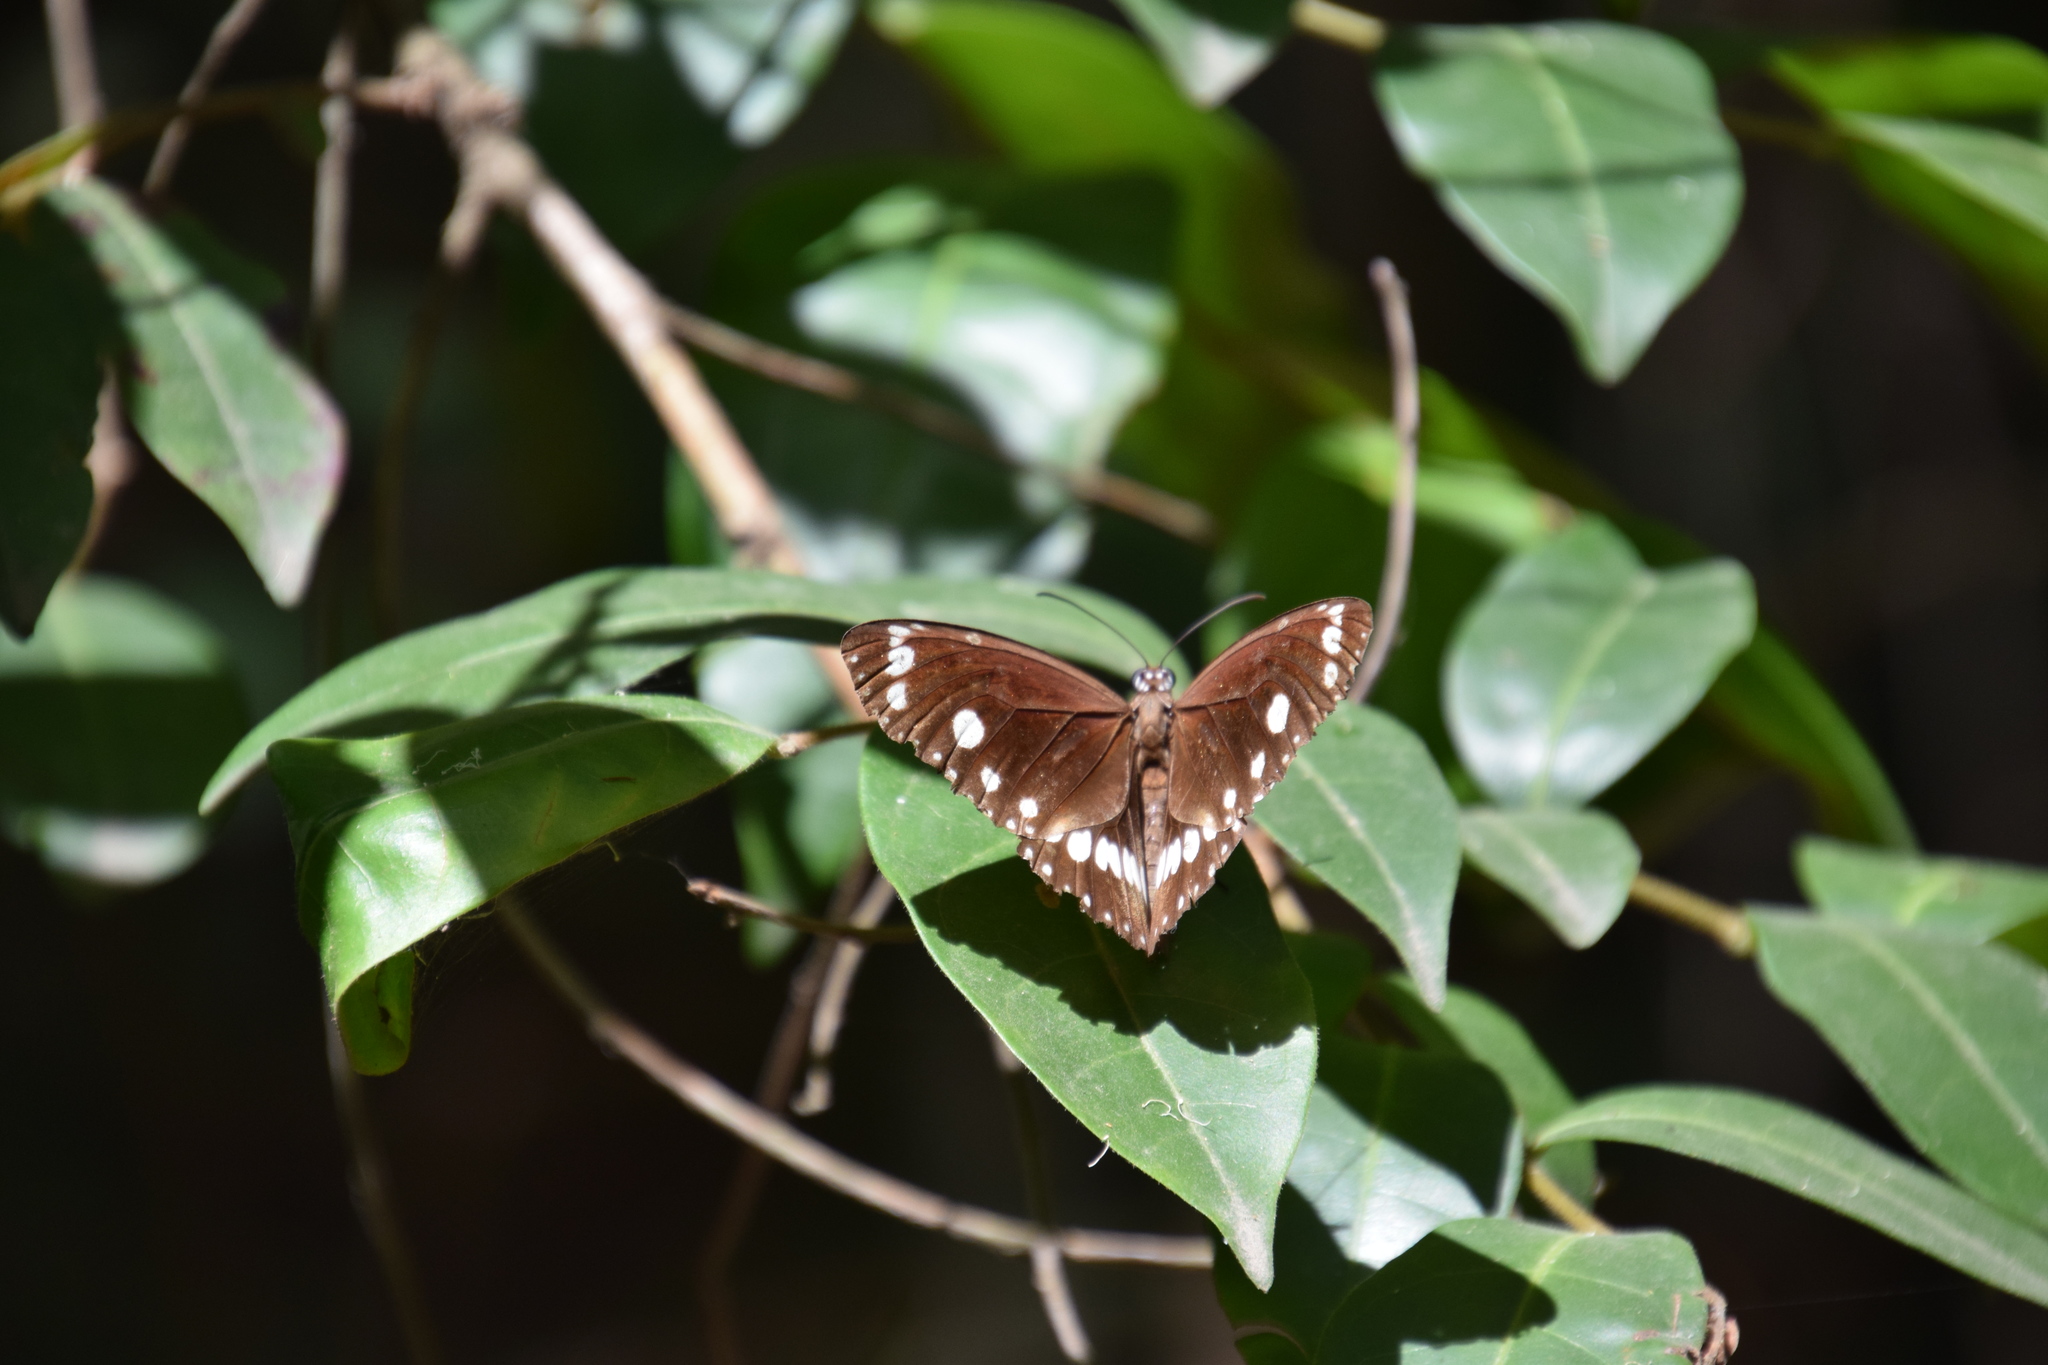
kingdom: Animalia
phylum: Arthropoda
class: Insecta
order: Lepidoptera
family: Nymphalidae
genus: Euploea
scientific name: Euploea core
